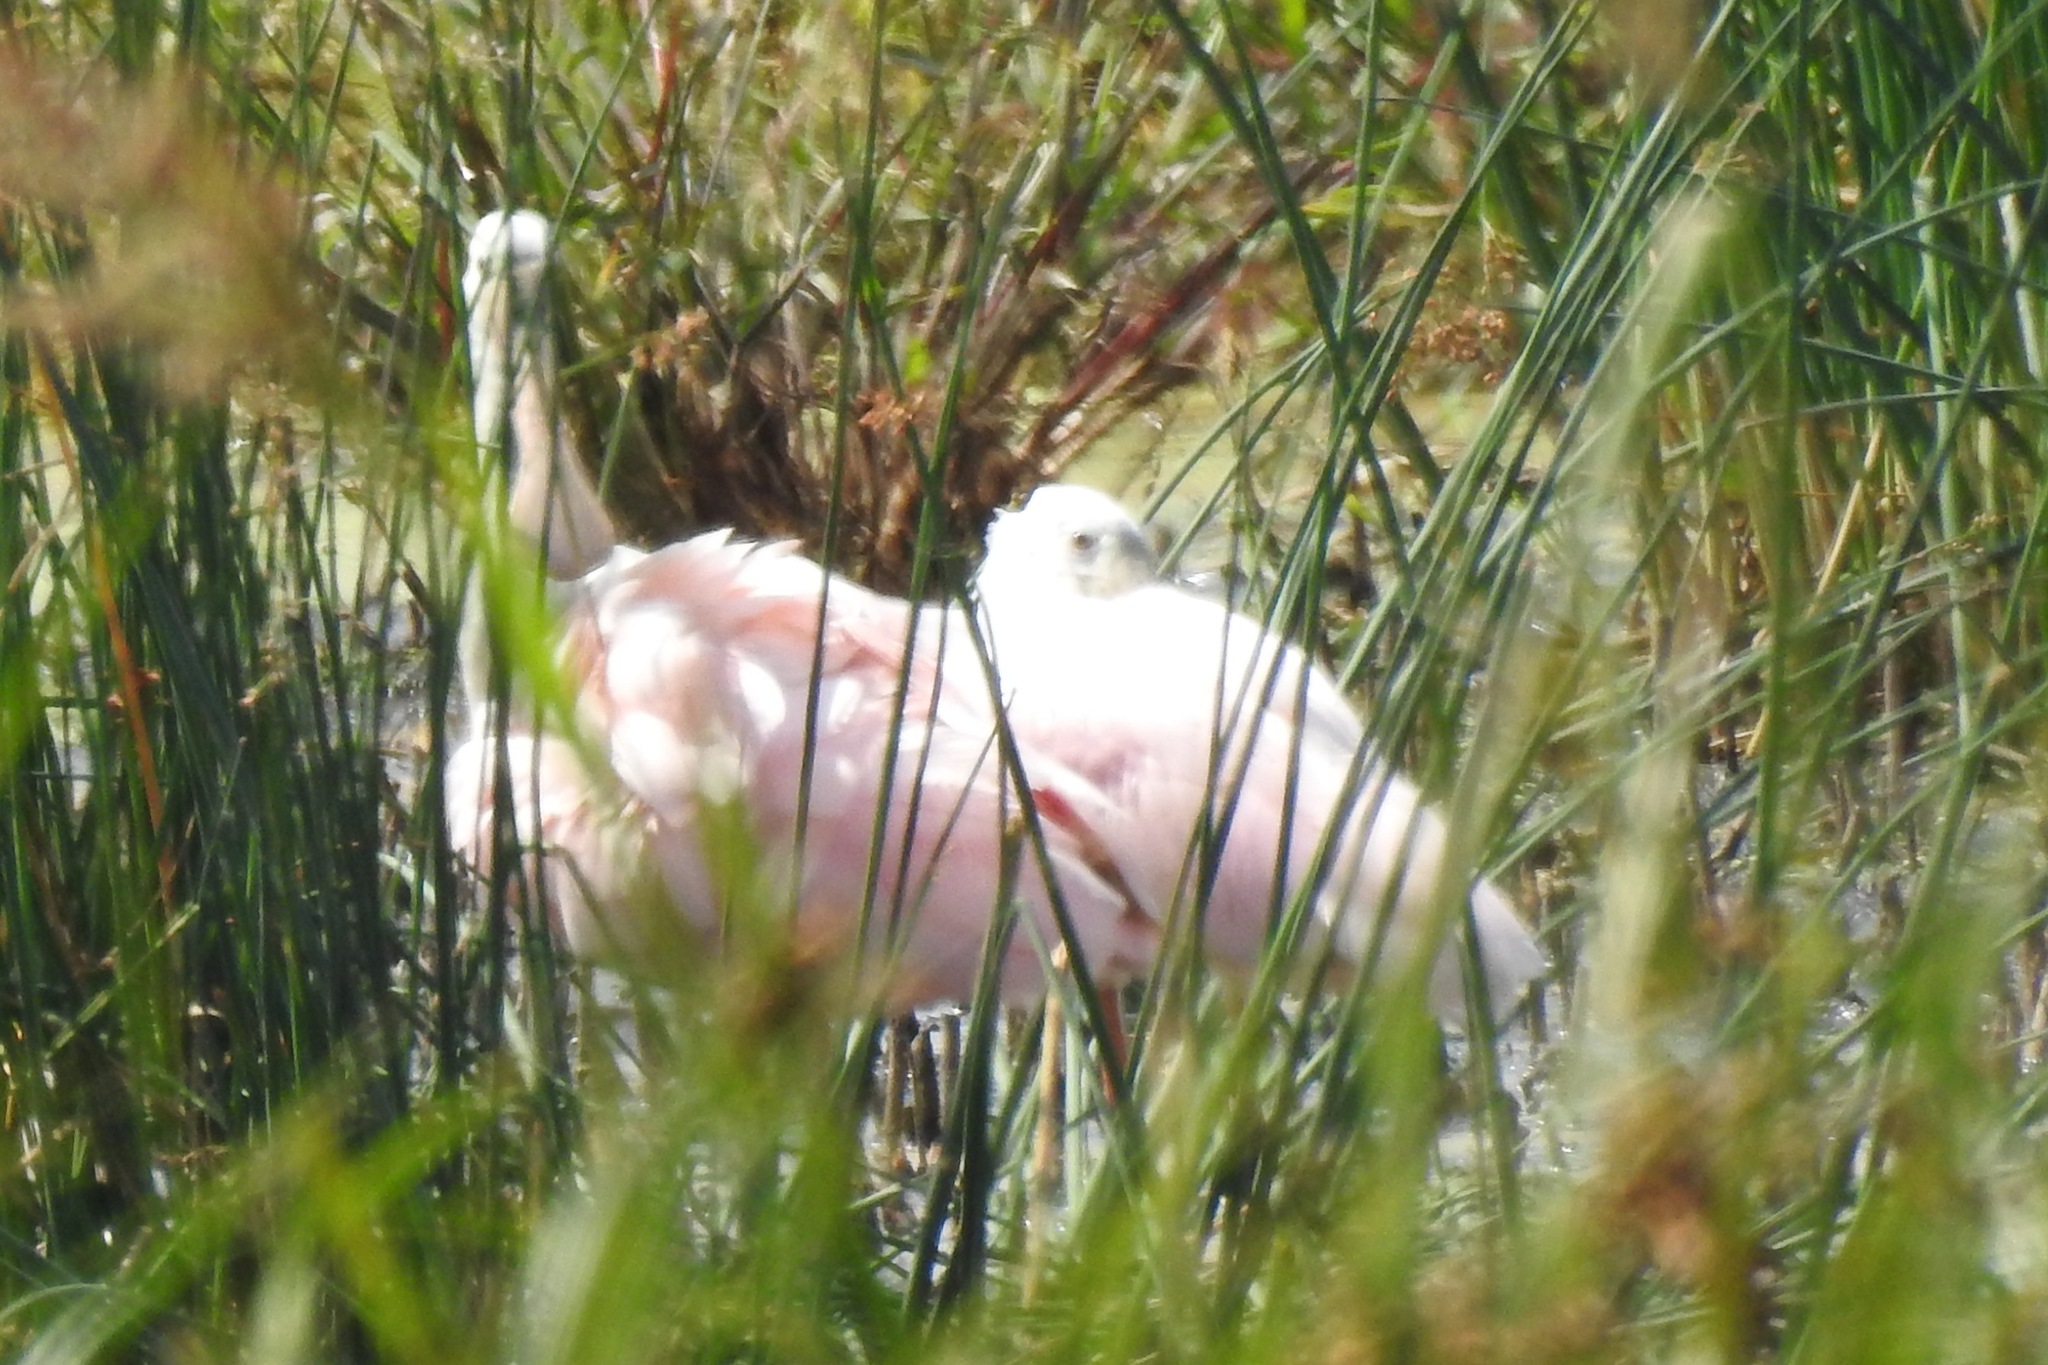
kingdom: Animalia
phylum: Chordata
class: Aves
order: Pelecaniformes
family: Threskiornithidae
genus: Platalea
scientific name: Platalea ajaja
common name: Roseate spoonbill
